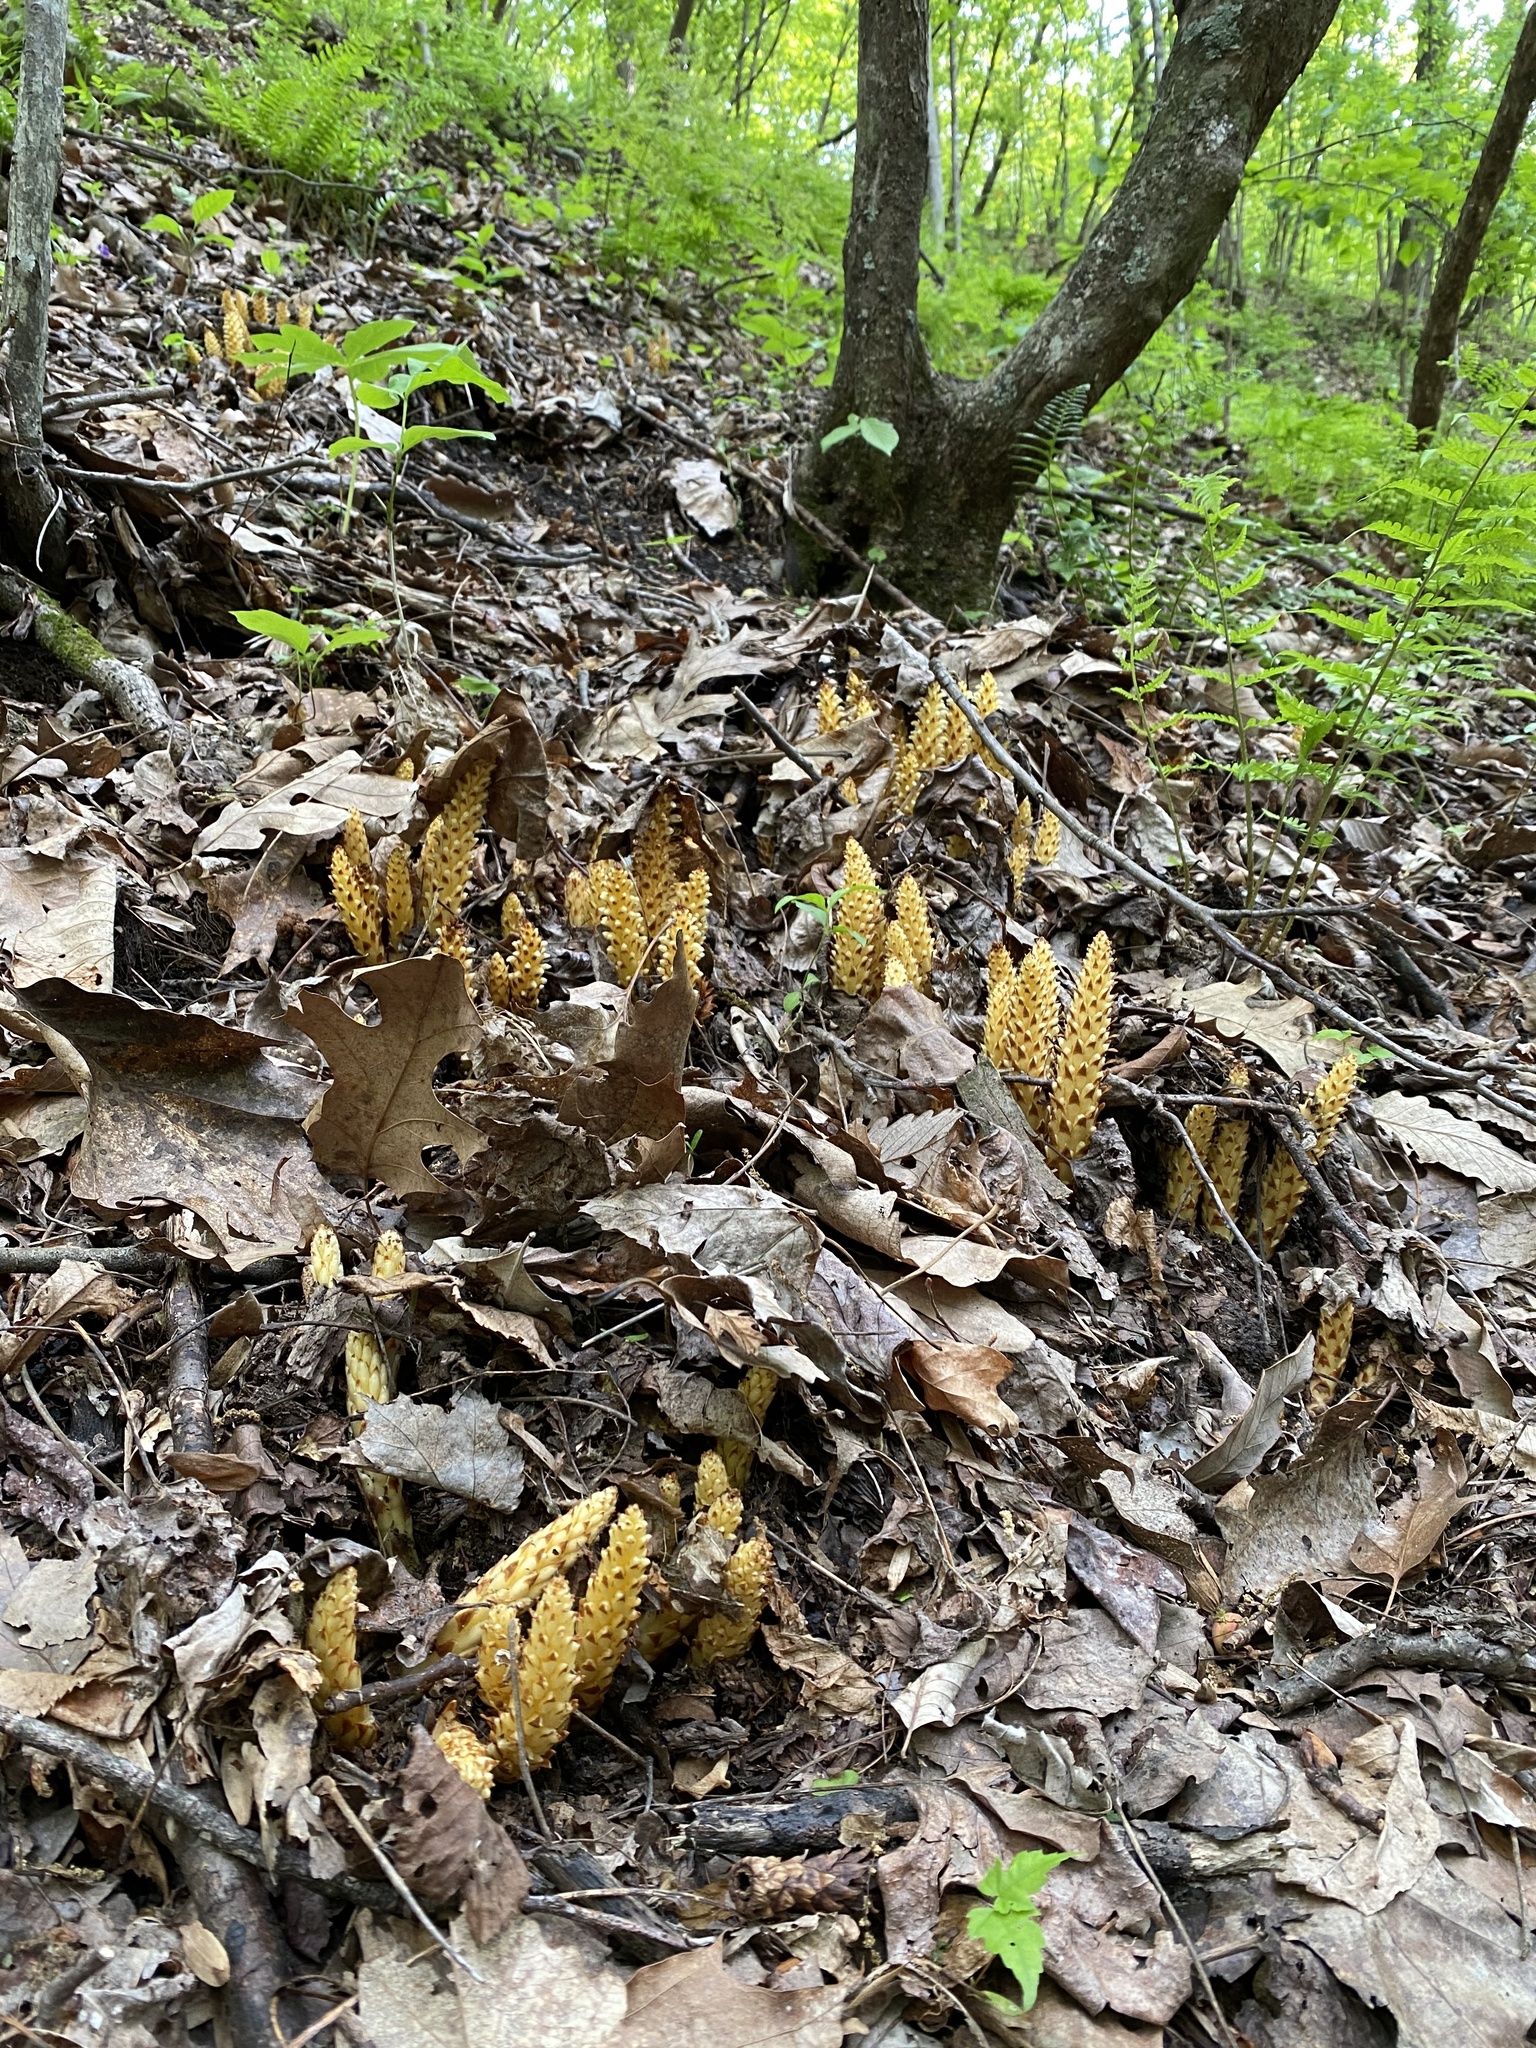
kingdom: Plantae
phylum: Tracheophyta
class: Magnoliopsida
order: Lamiales
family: Orobanchaceae
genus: Conopholis
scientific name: Conopholis americana
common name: American cancer-root
